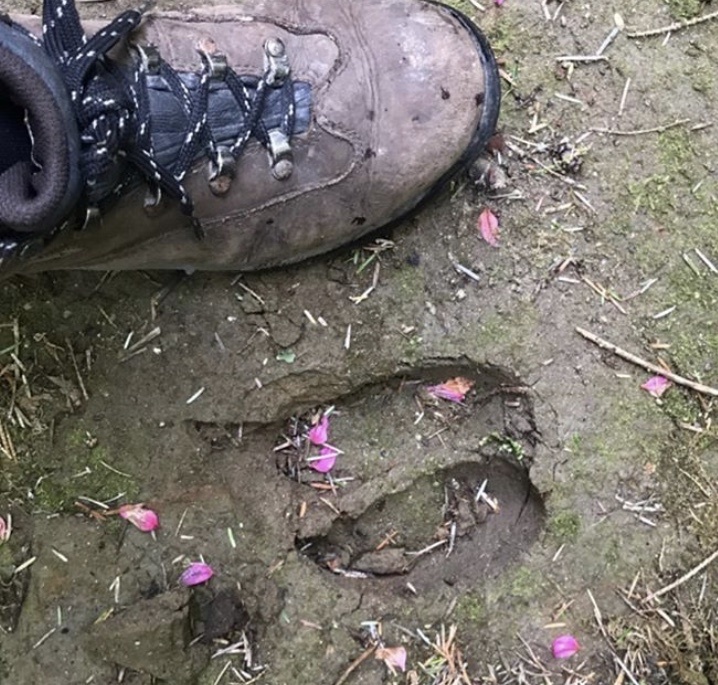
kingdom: Animalia
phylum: Chordata
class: Mammalia
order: Artiodactyla
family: Cervidae
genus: Cervus
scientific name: Cervus elaphus
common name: Red deer
